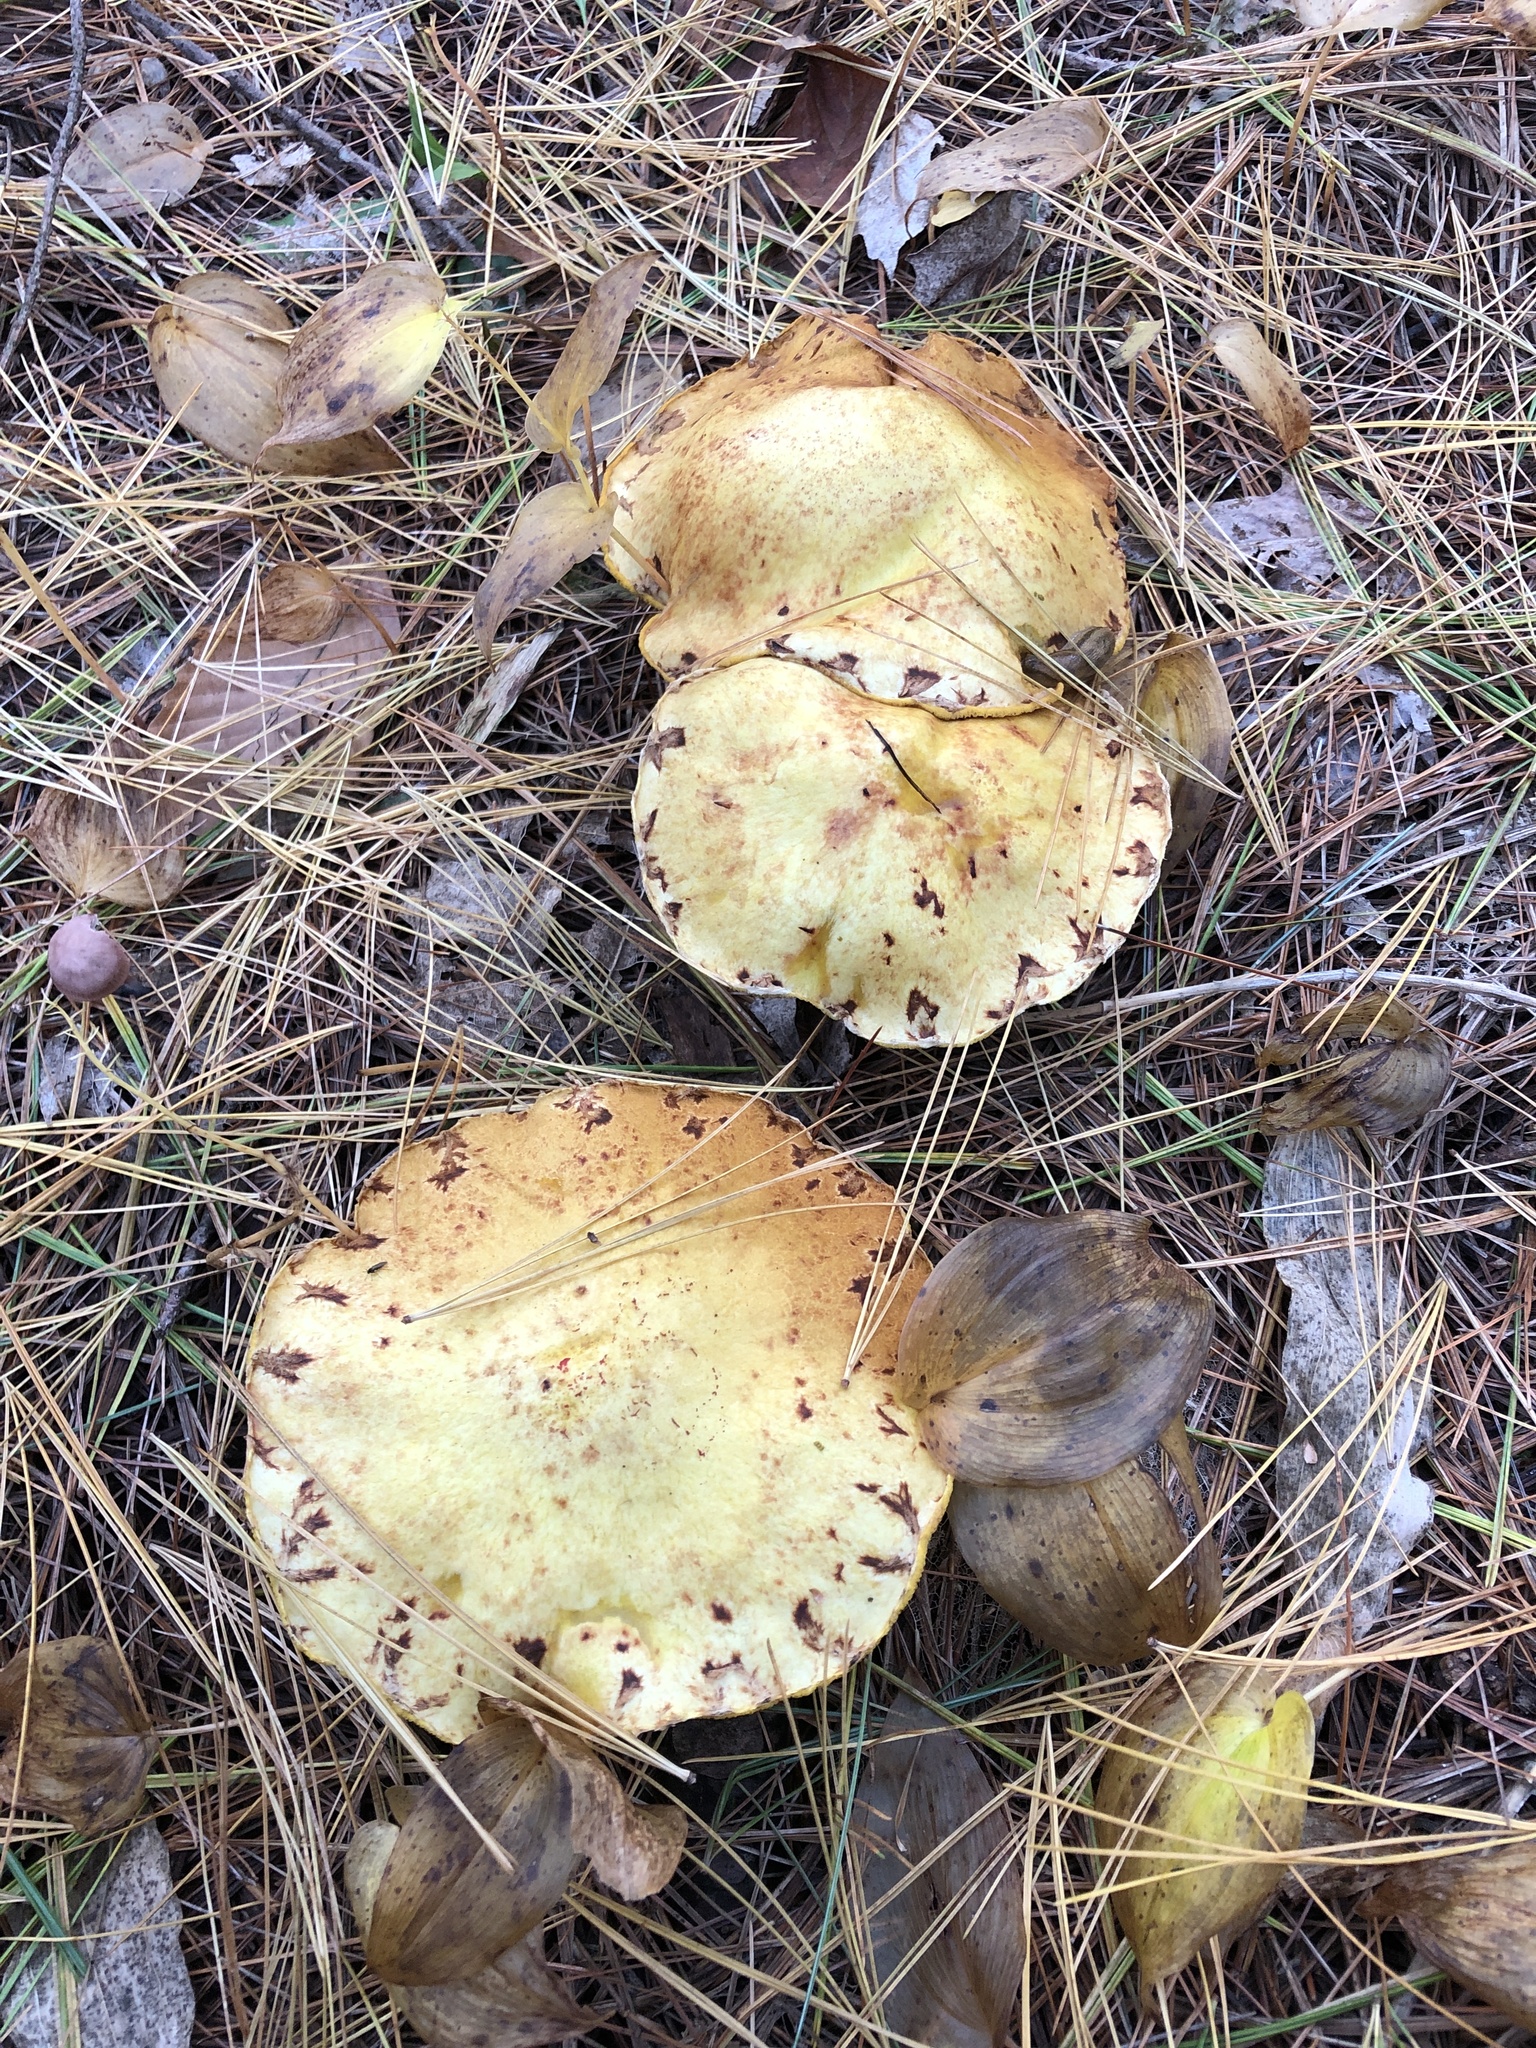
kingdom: Fungi
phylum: Basidiomycota
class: Agaricomycetes
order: Boletales
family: Suillaceae
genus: Suillus
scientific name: Suillus americanus
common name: Chicken fat mushroom
